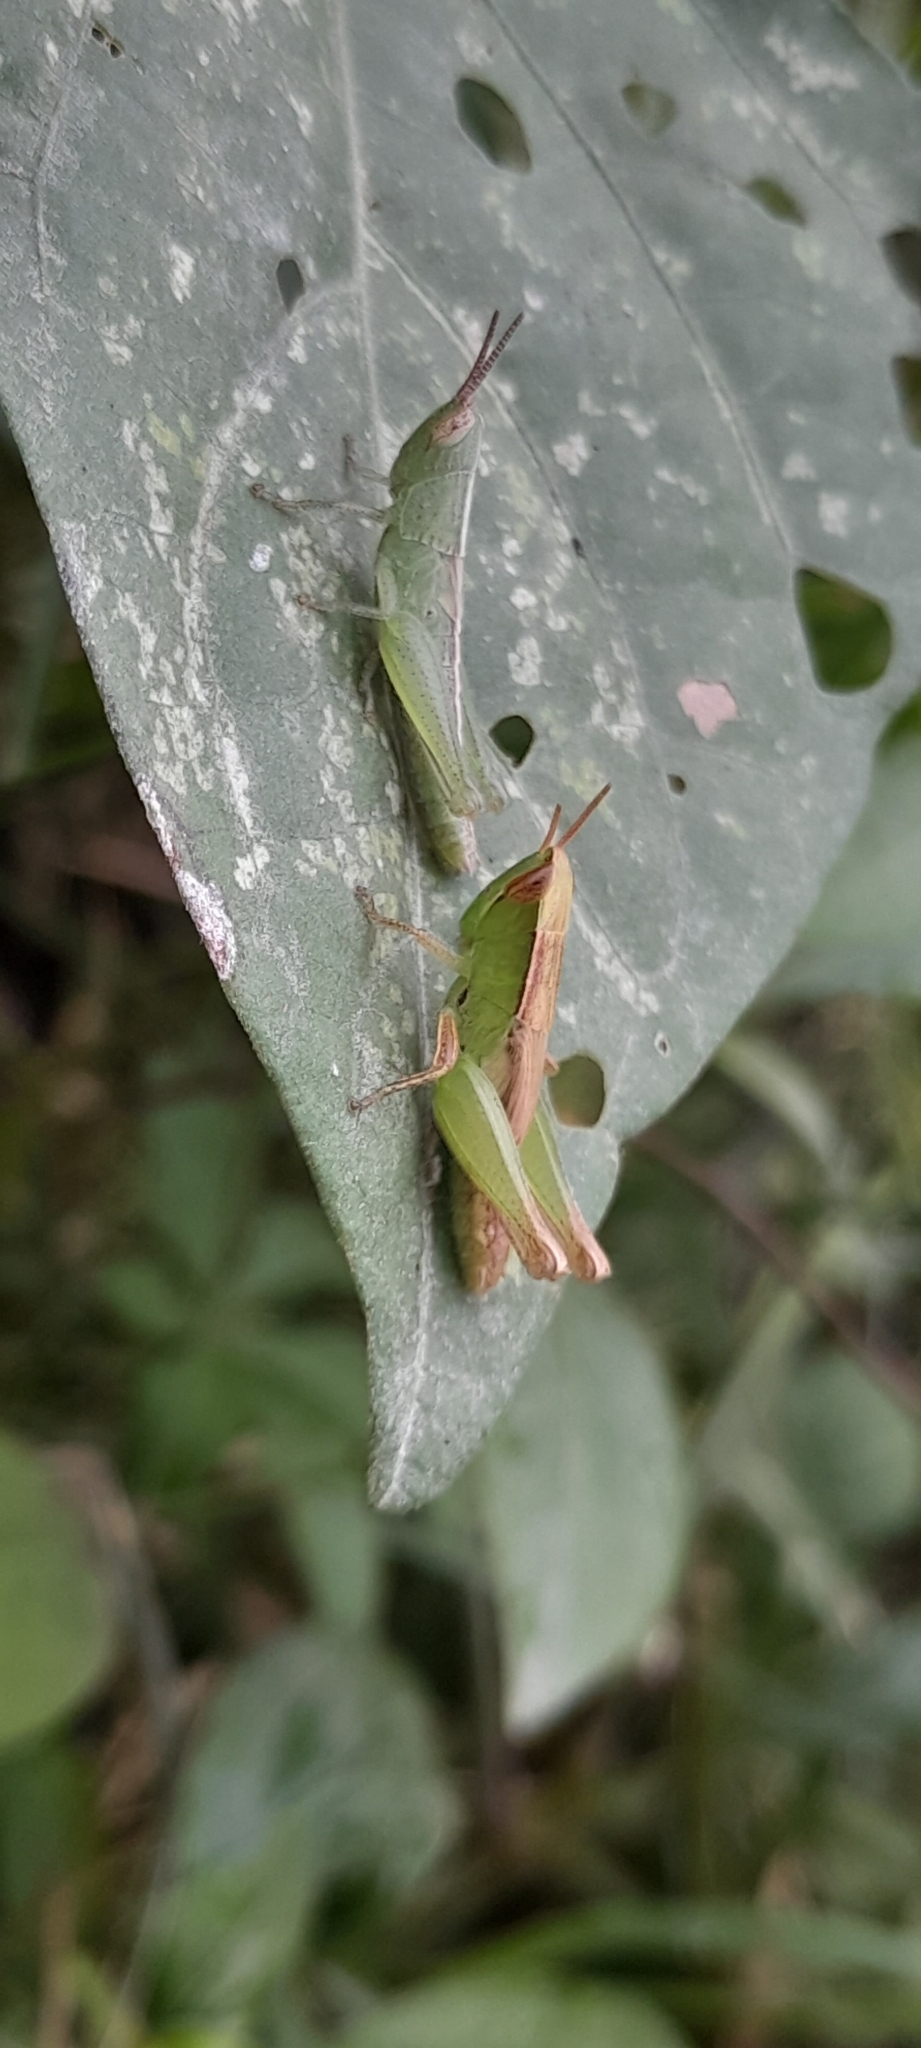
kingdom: Animalia
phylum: Arthropoda
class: Insecta
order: Orthoptera
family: Acrididae
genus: Spathosternum
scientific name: Spathosternum prasiniferum
